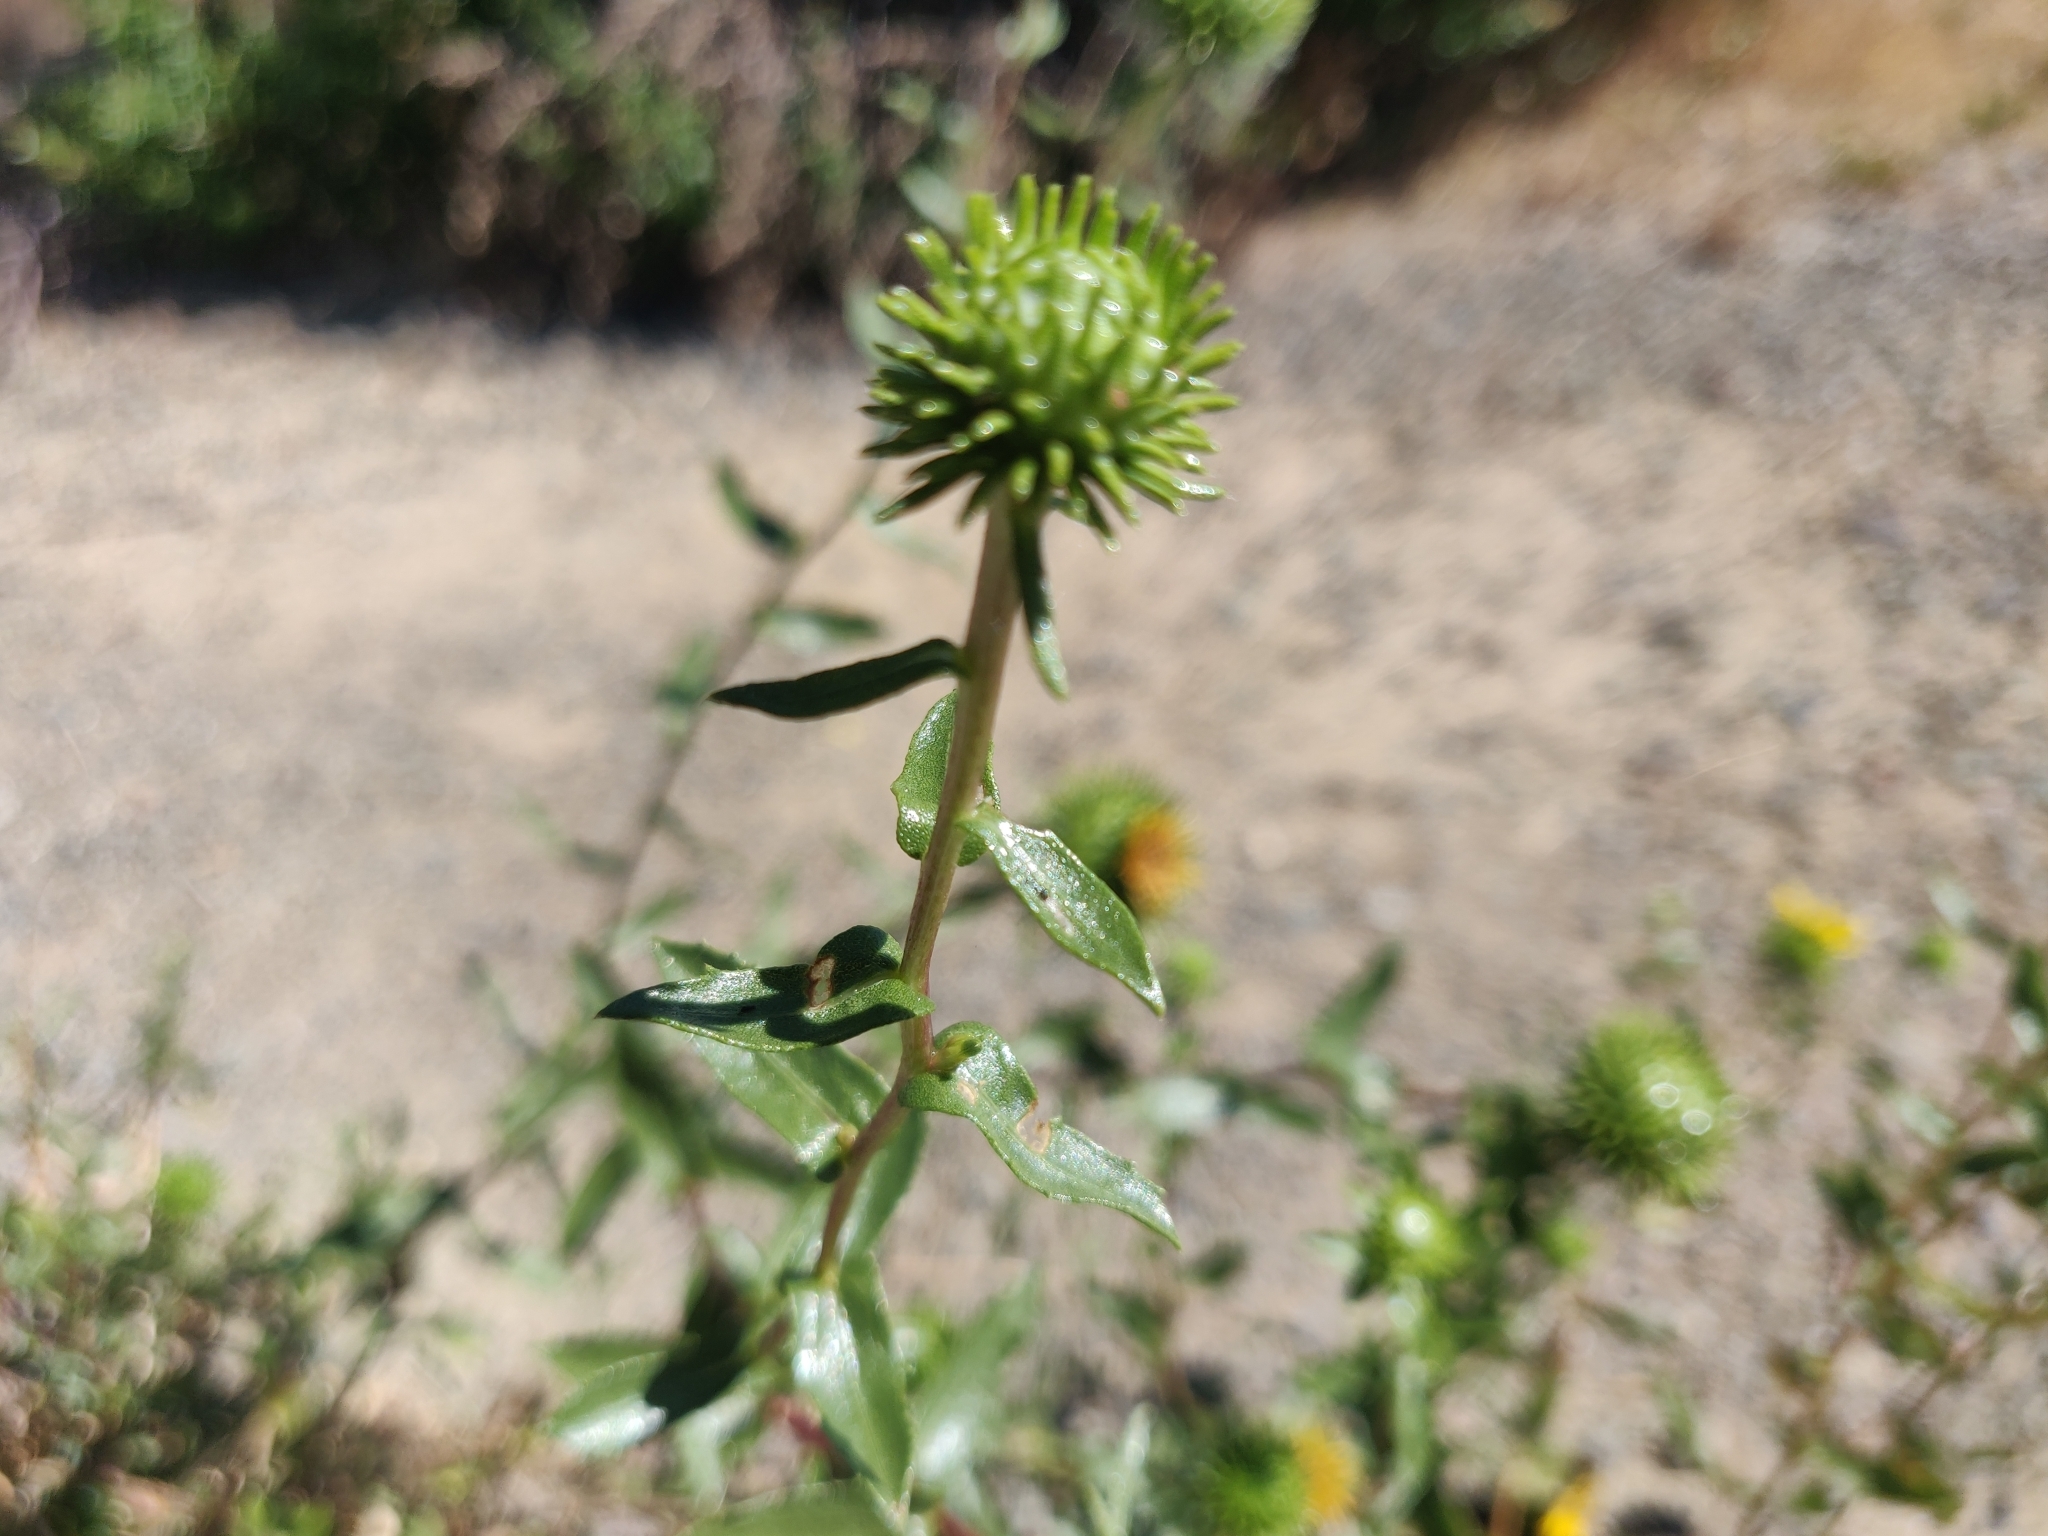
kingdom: Plantae
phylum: Tracheophyta
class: Magnoliopsida
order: Asterales
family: Asteraceae
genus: Grindelia
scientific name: Grindelia hirsutula
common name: Hairy gumweed
